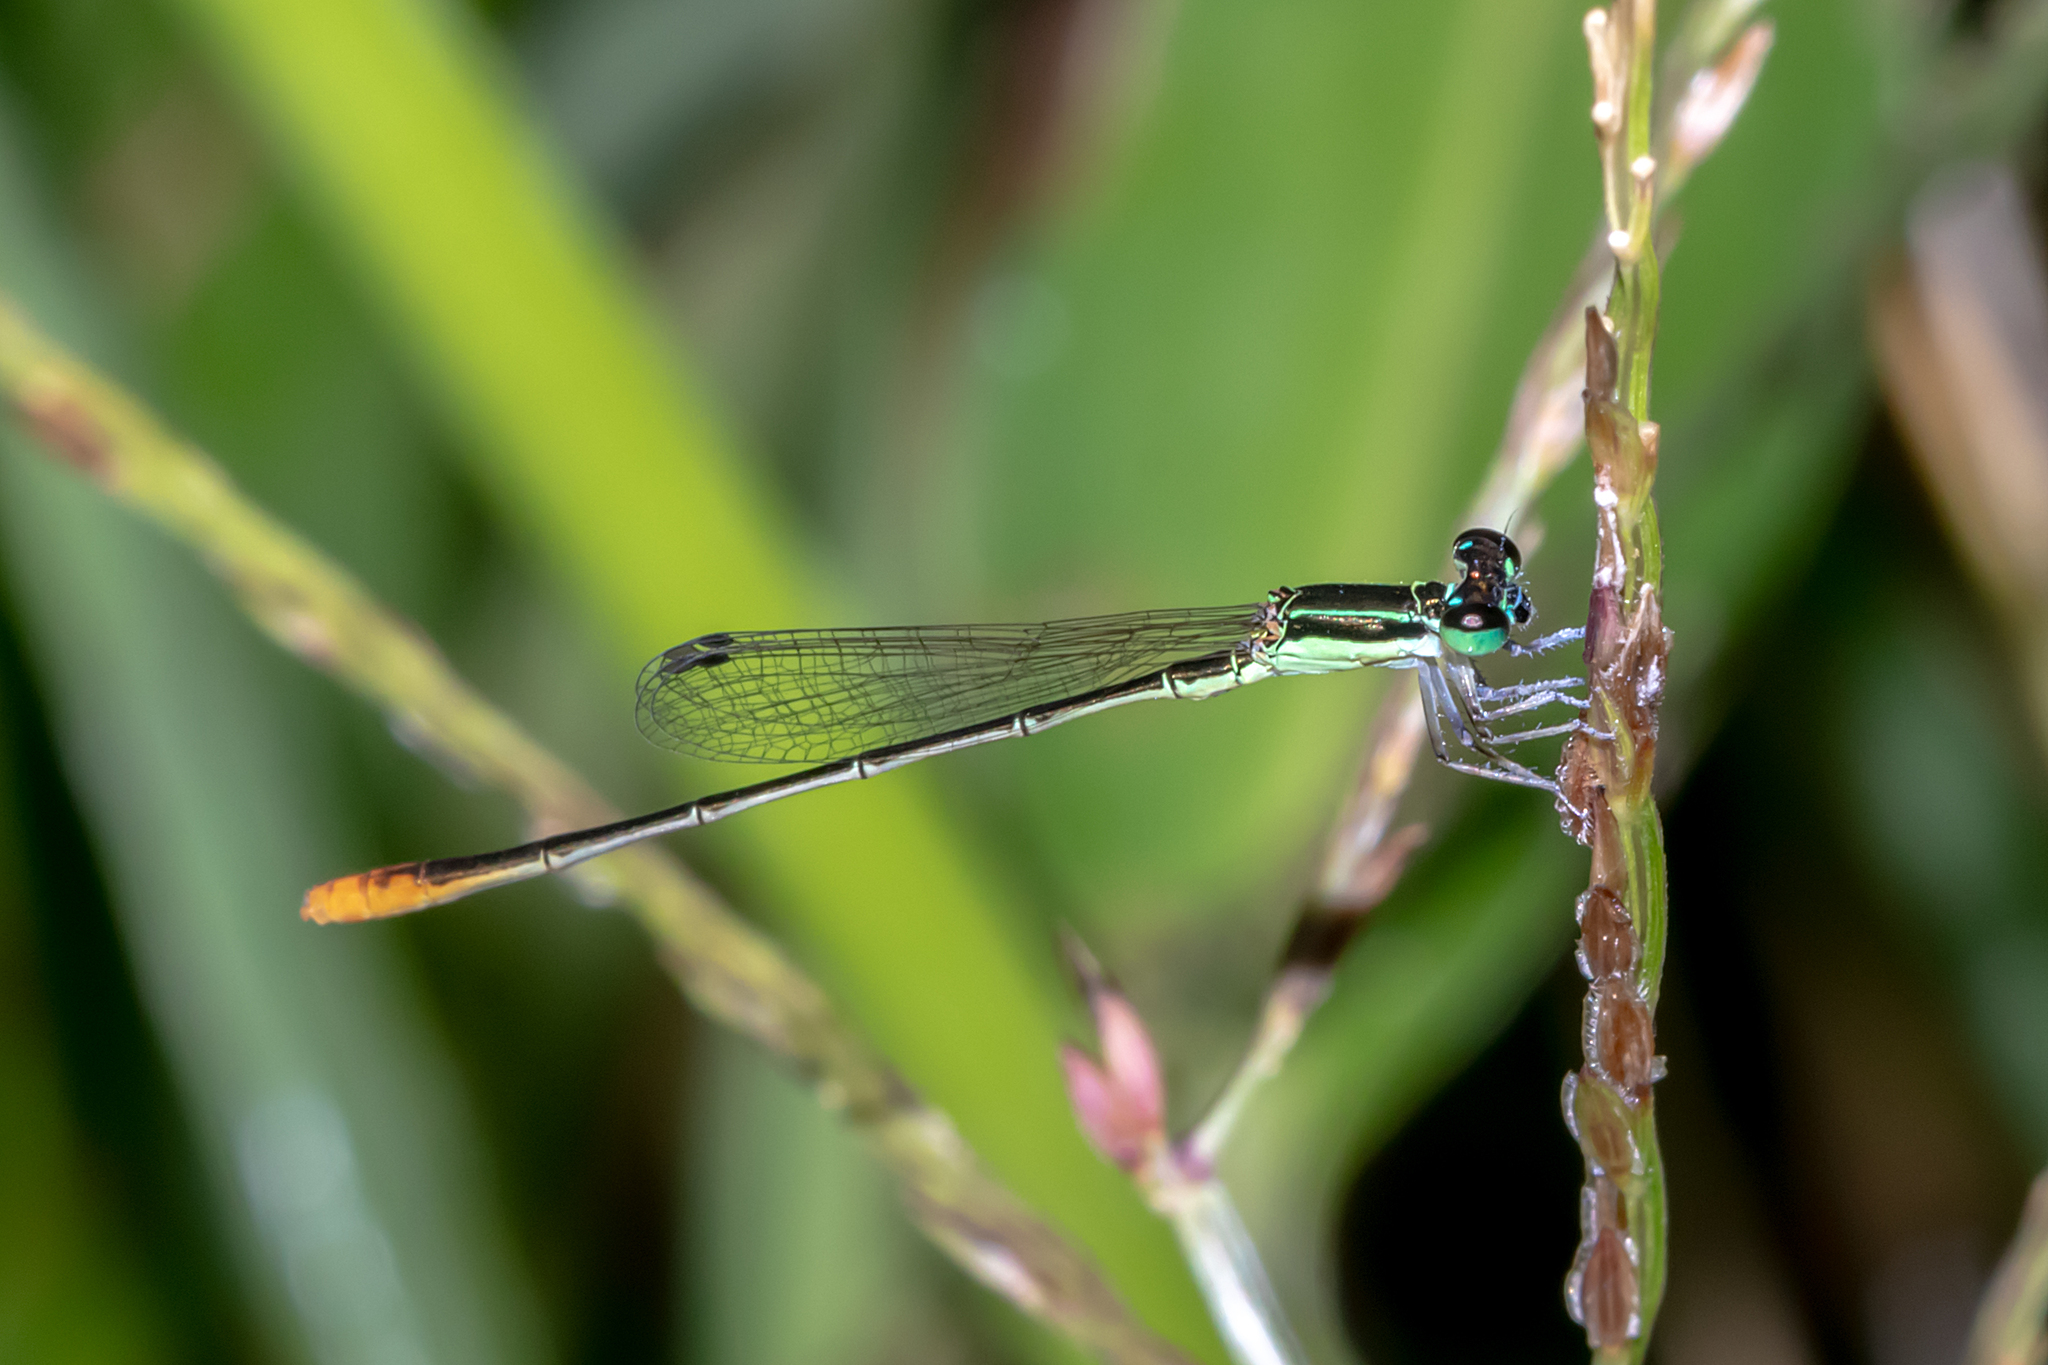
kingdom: Animalia
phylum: Arthropoda
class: Insecta
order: Odonata
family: Coenagrionidae
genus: Agriocnemis
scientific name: Agriocnemis pygmaea
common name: Pygmy wisp
